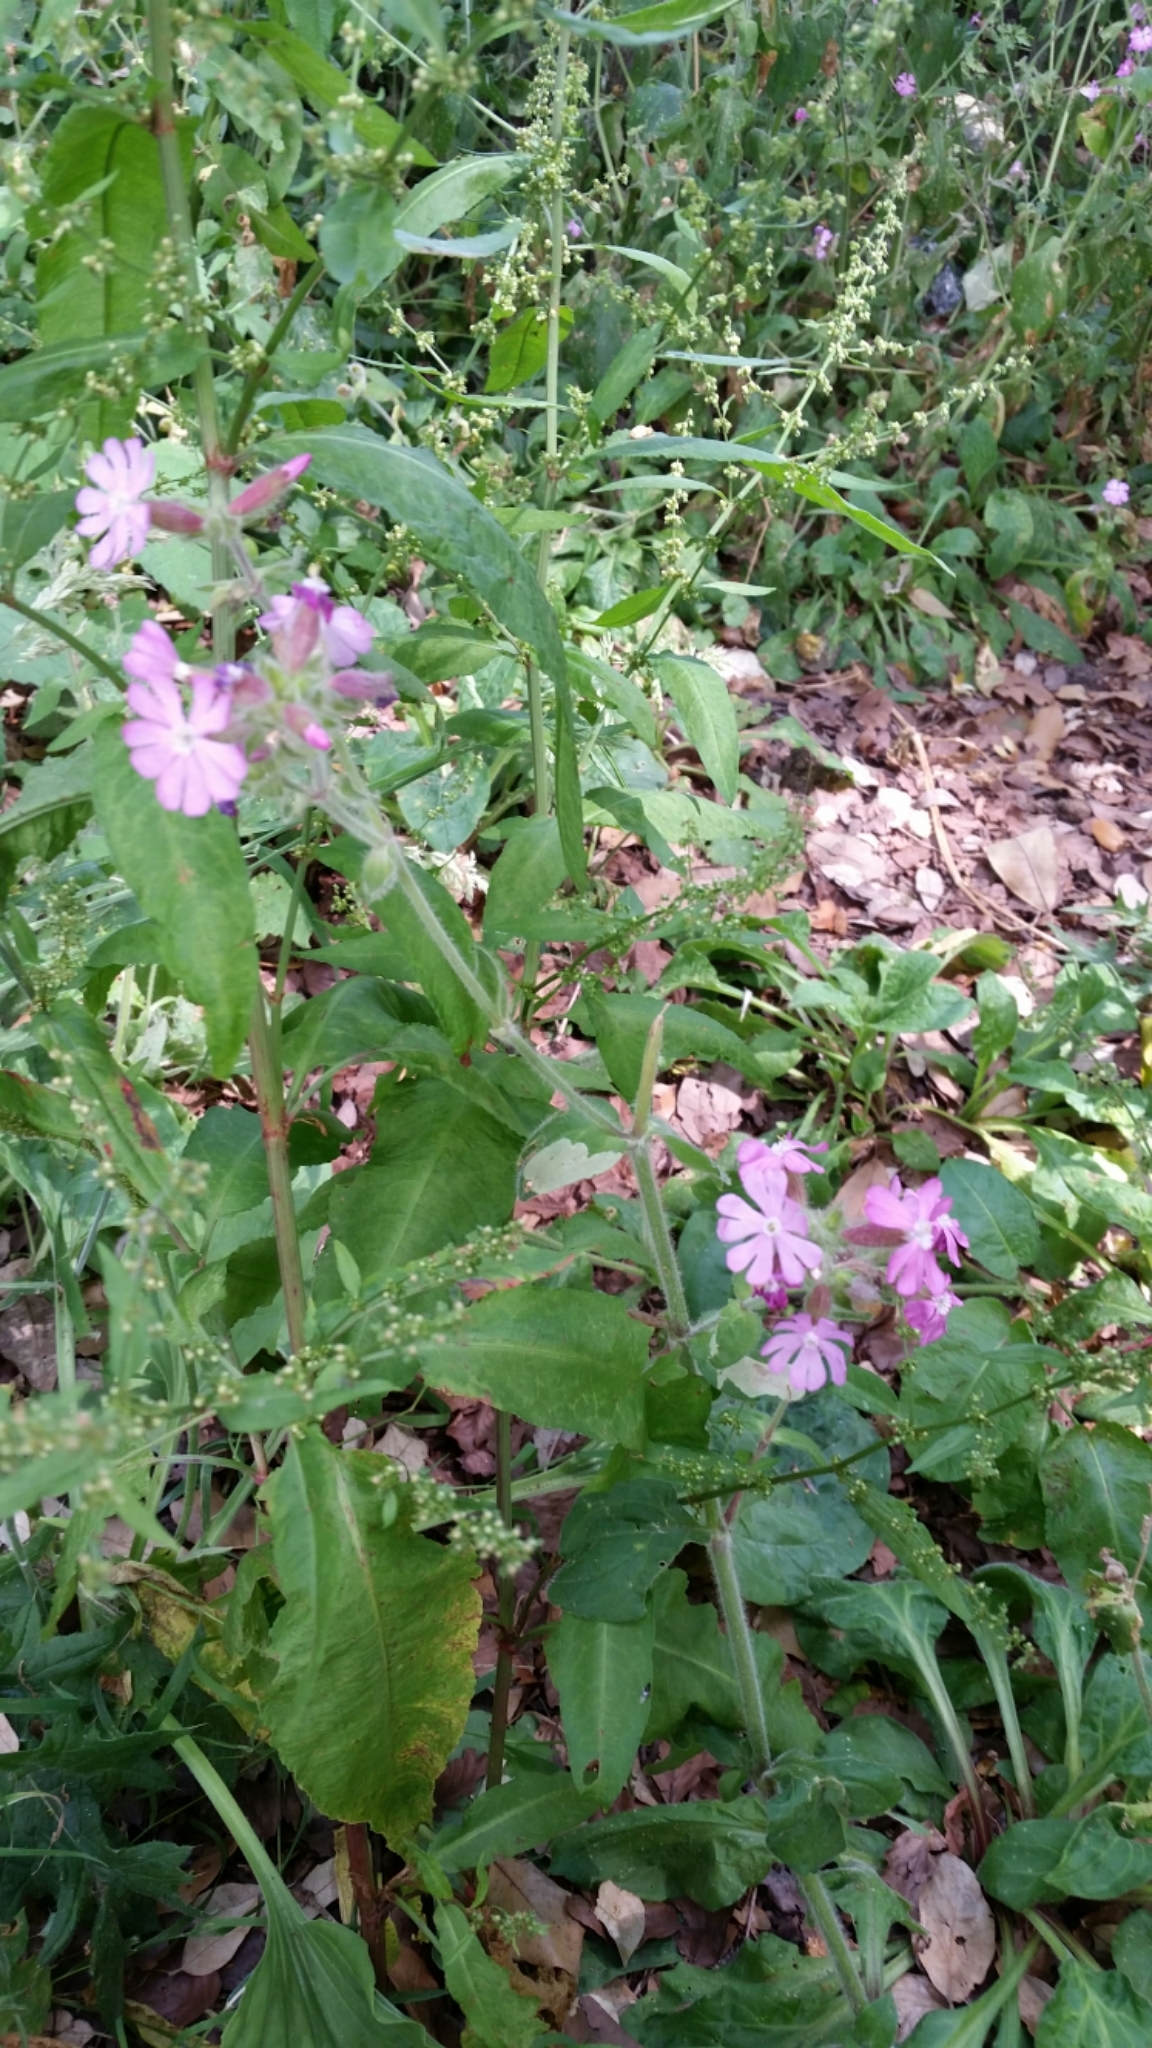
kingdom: Plantae
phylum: Tracheophyta
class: Magnoliopsida
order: Caryophyllales
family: Caryophyllaceae
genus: Silene
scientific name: Silene dioica
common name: Red campion
